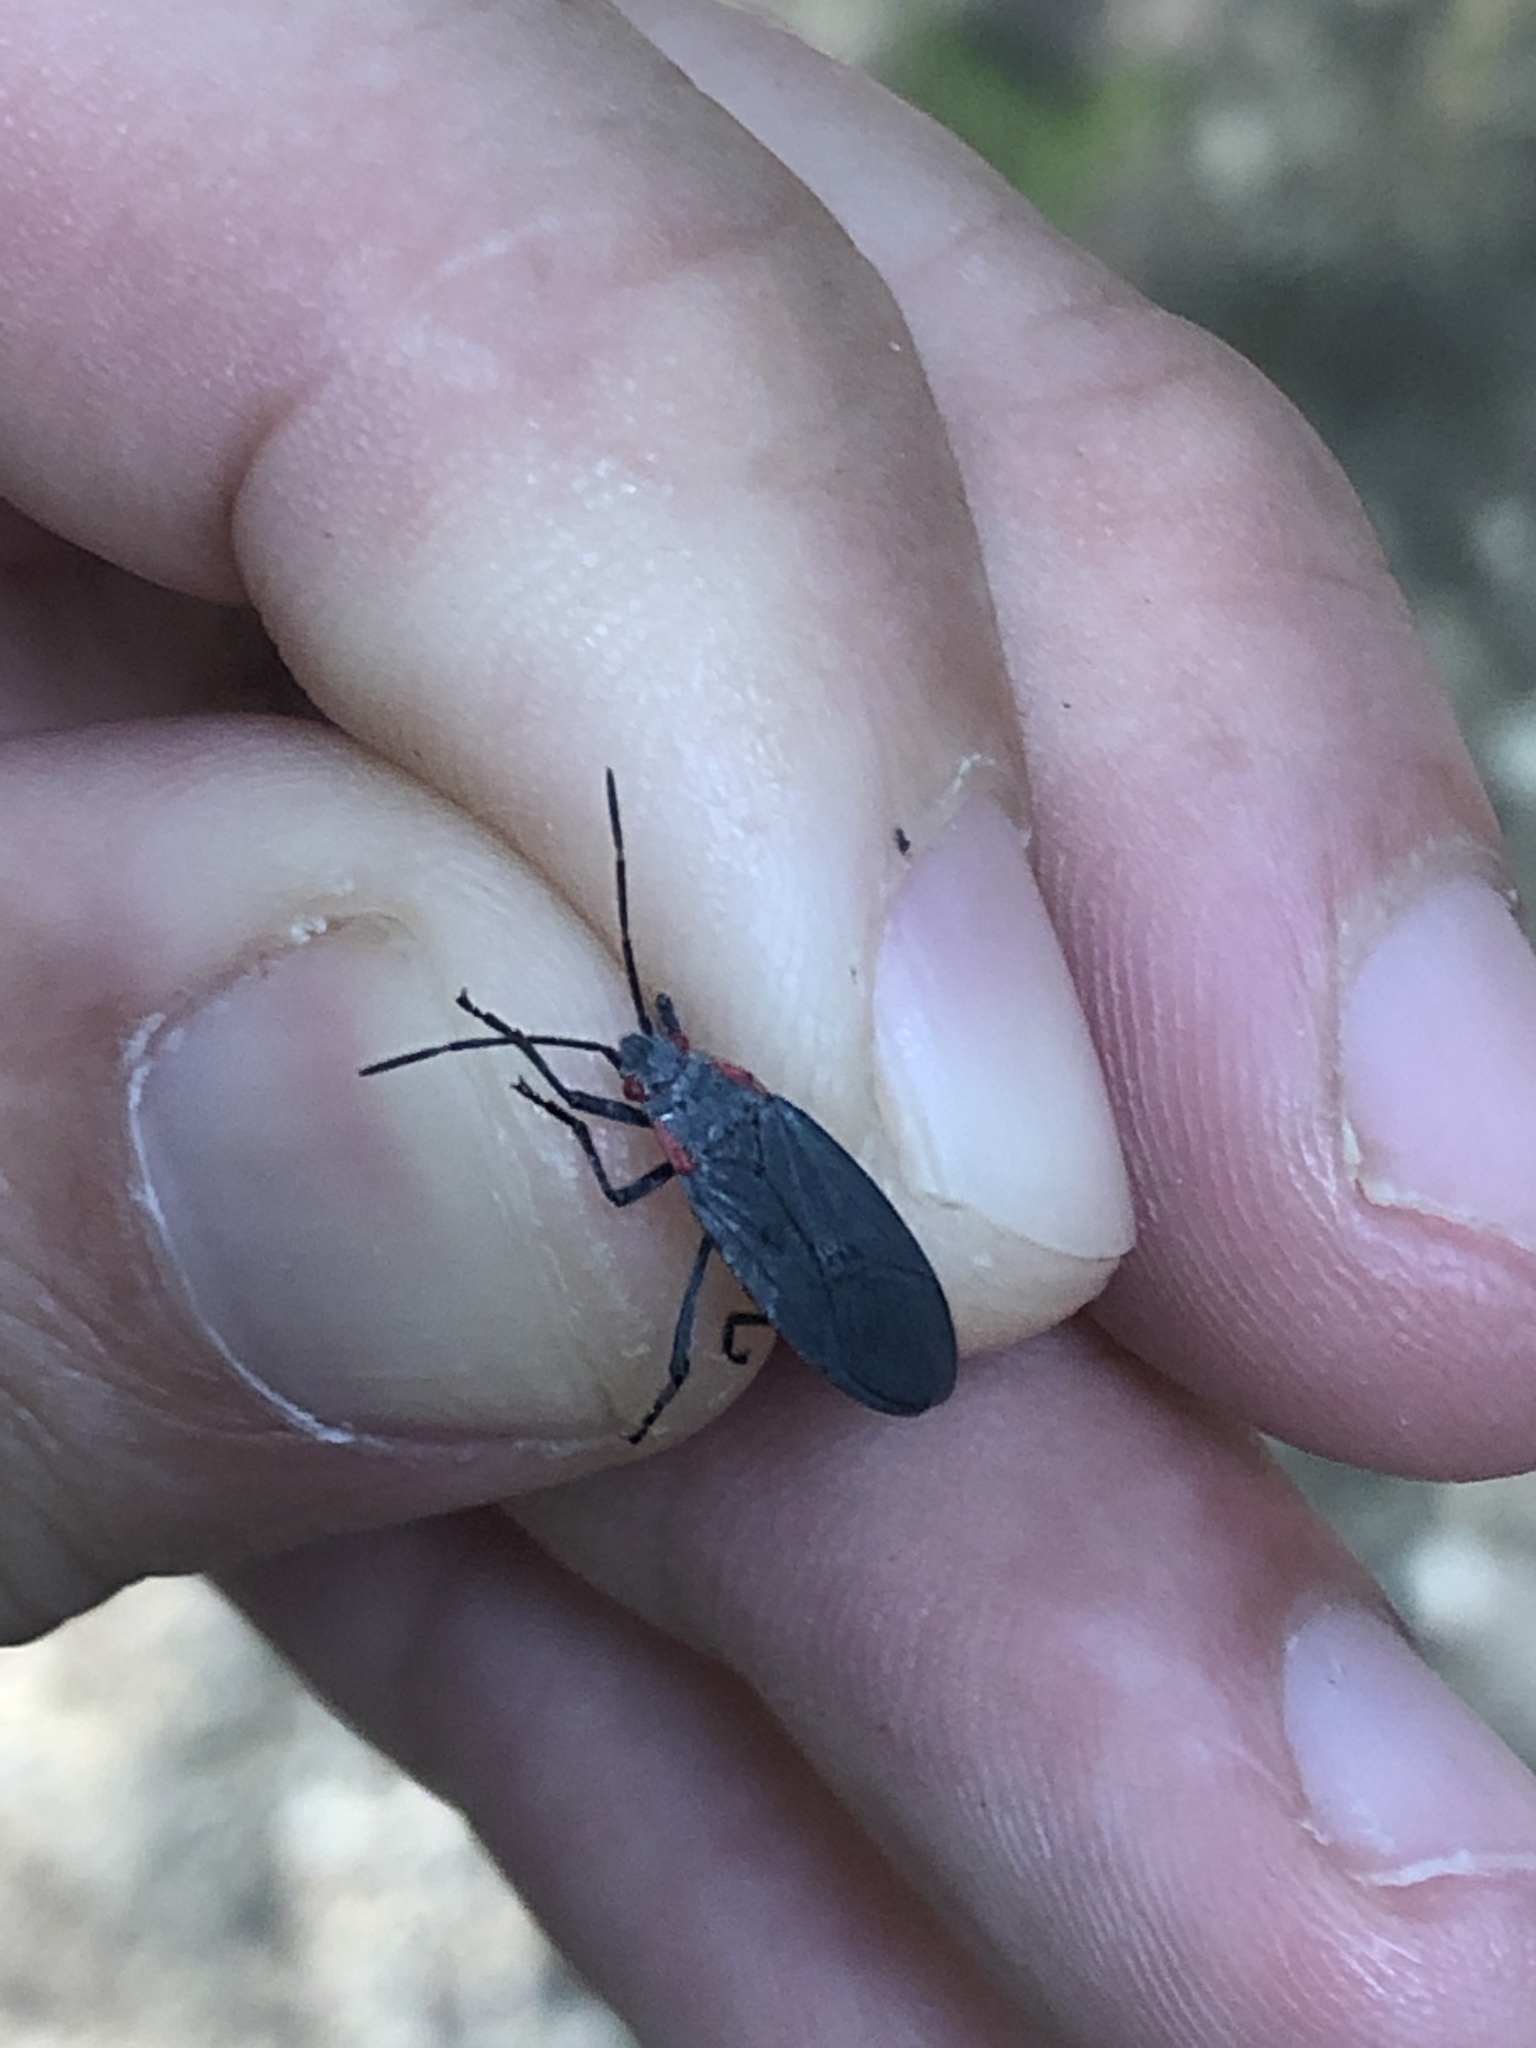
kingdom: Animalia
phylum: Arthropoda
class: Insecta
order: Hemiptera
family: Rhopalidae
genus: Jadera
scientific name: Jadera haematoloma
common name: Red-shouldered bug
